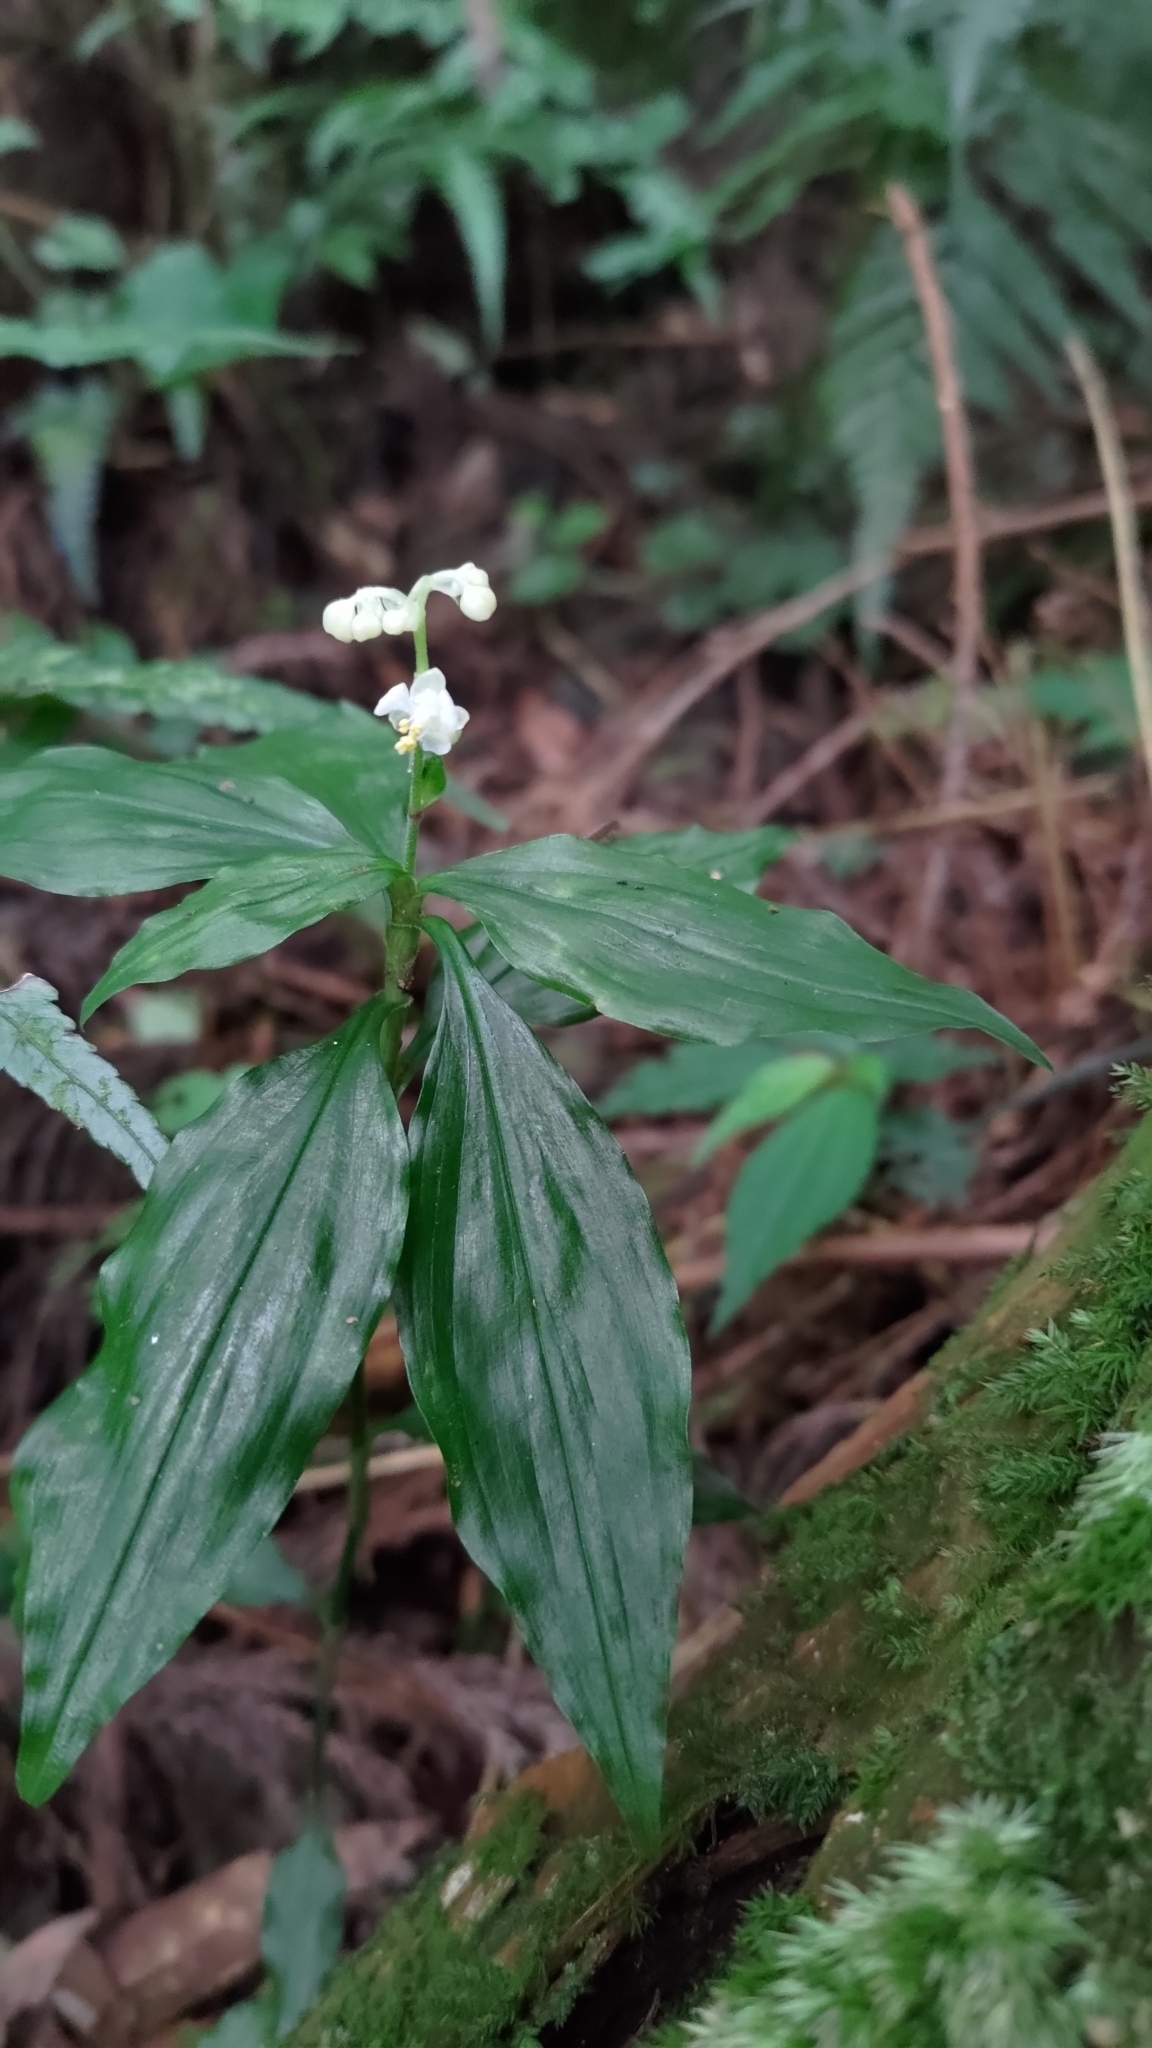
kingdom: Plantae
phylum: Tracheophyta
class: Liliopsida
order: Commelinales
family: Commelinaceae
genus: Pollia
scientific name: Pollia miranda
